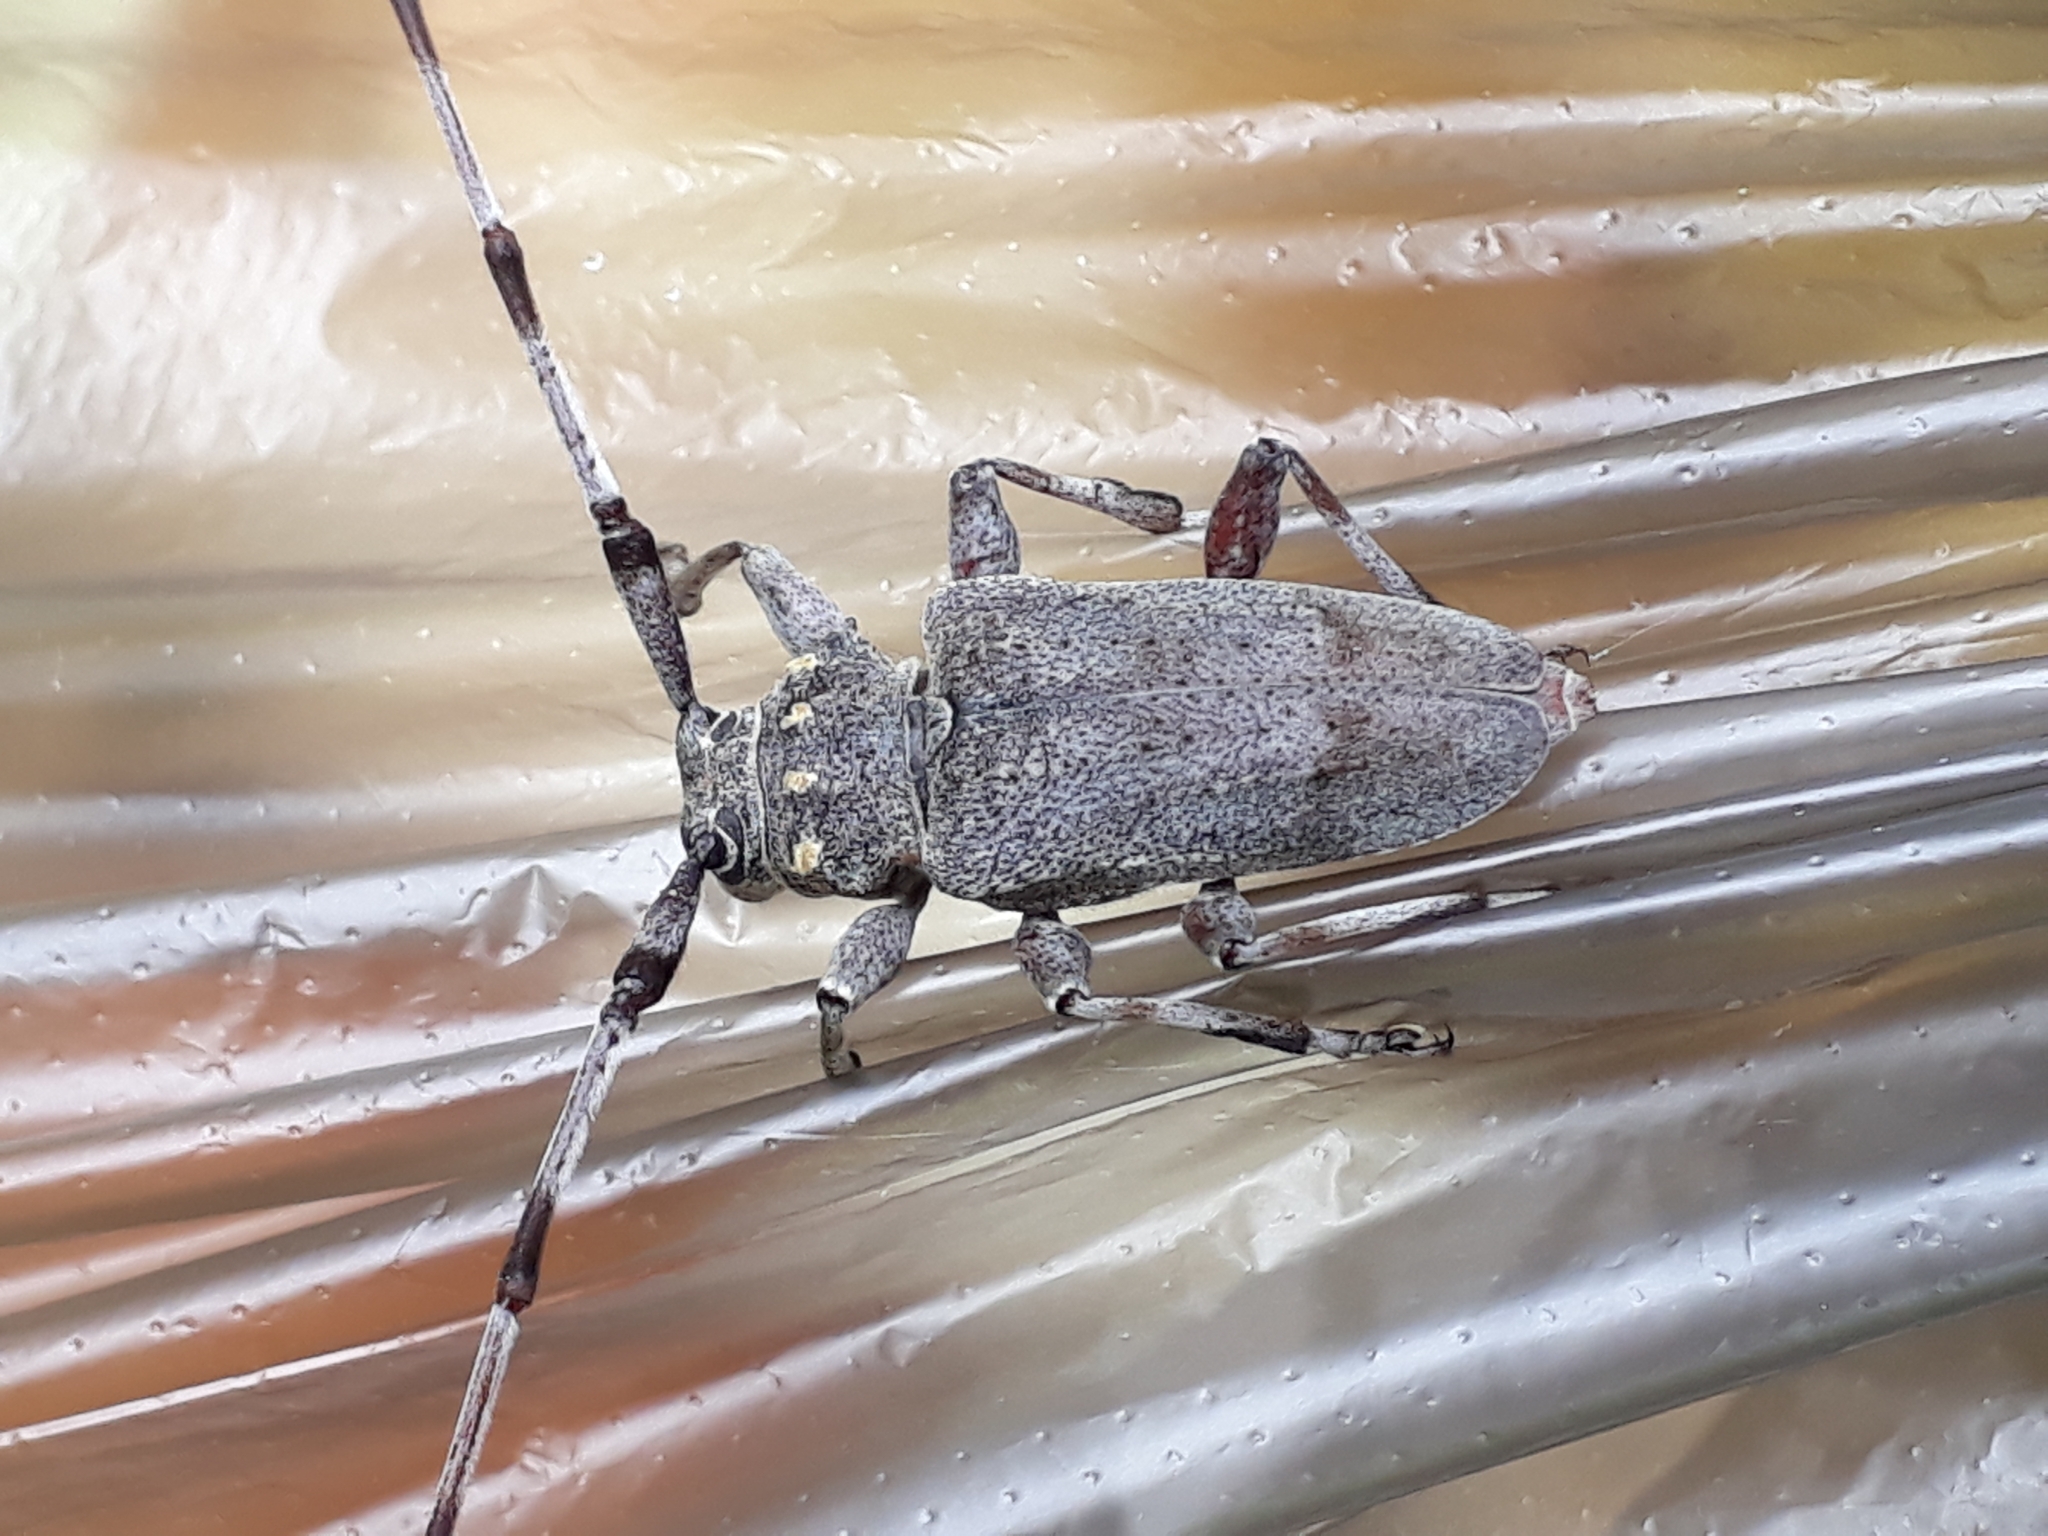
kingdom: Animalia
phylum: Arthropoda
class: Insecta
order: Coleoptera
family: Cerambycidae
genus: Acanthocinus
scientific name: Acanthocinus aedilis
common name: Timberman beetle
